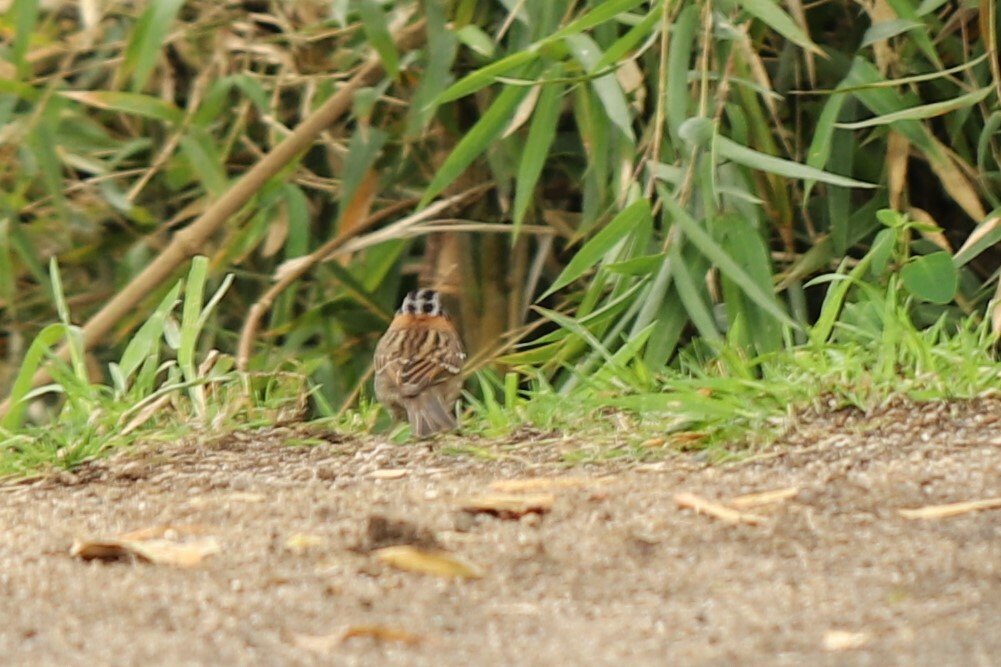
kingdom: Animalia
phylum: Chordata
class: Aves
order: Passeriformes
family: Passerellidae
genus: Zonotrichia
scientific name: Zonotrichia capensis
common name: Rufous-collared sparrow
